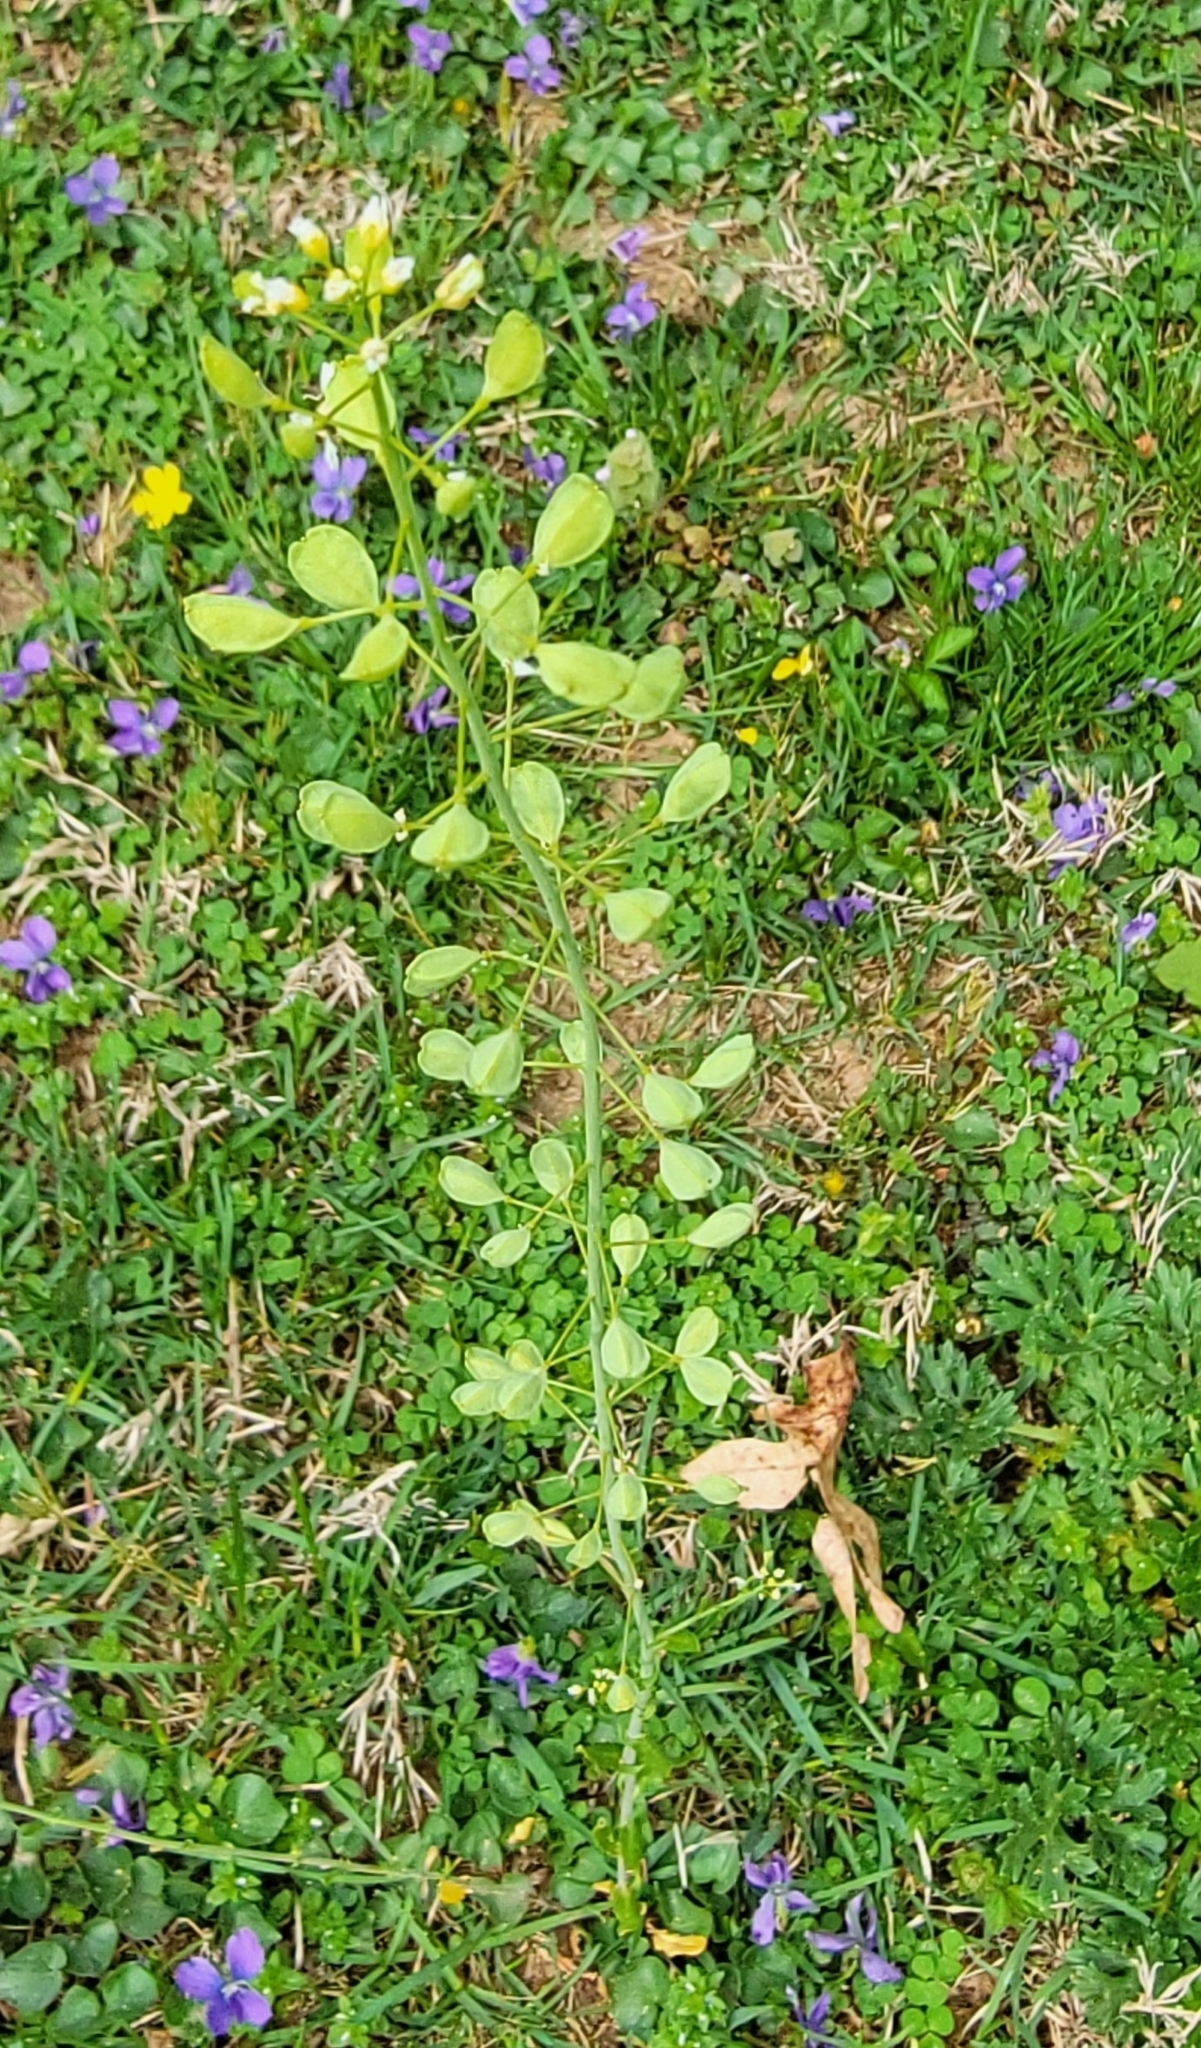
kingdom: Plantae
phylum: Tracheophyta
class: Magnoliopsida
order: Brassicales
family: Brassicaceae
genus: Mummenhoffia
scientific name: Mummenhoffia alliacea
